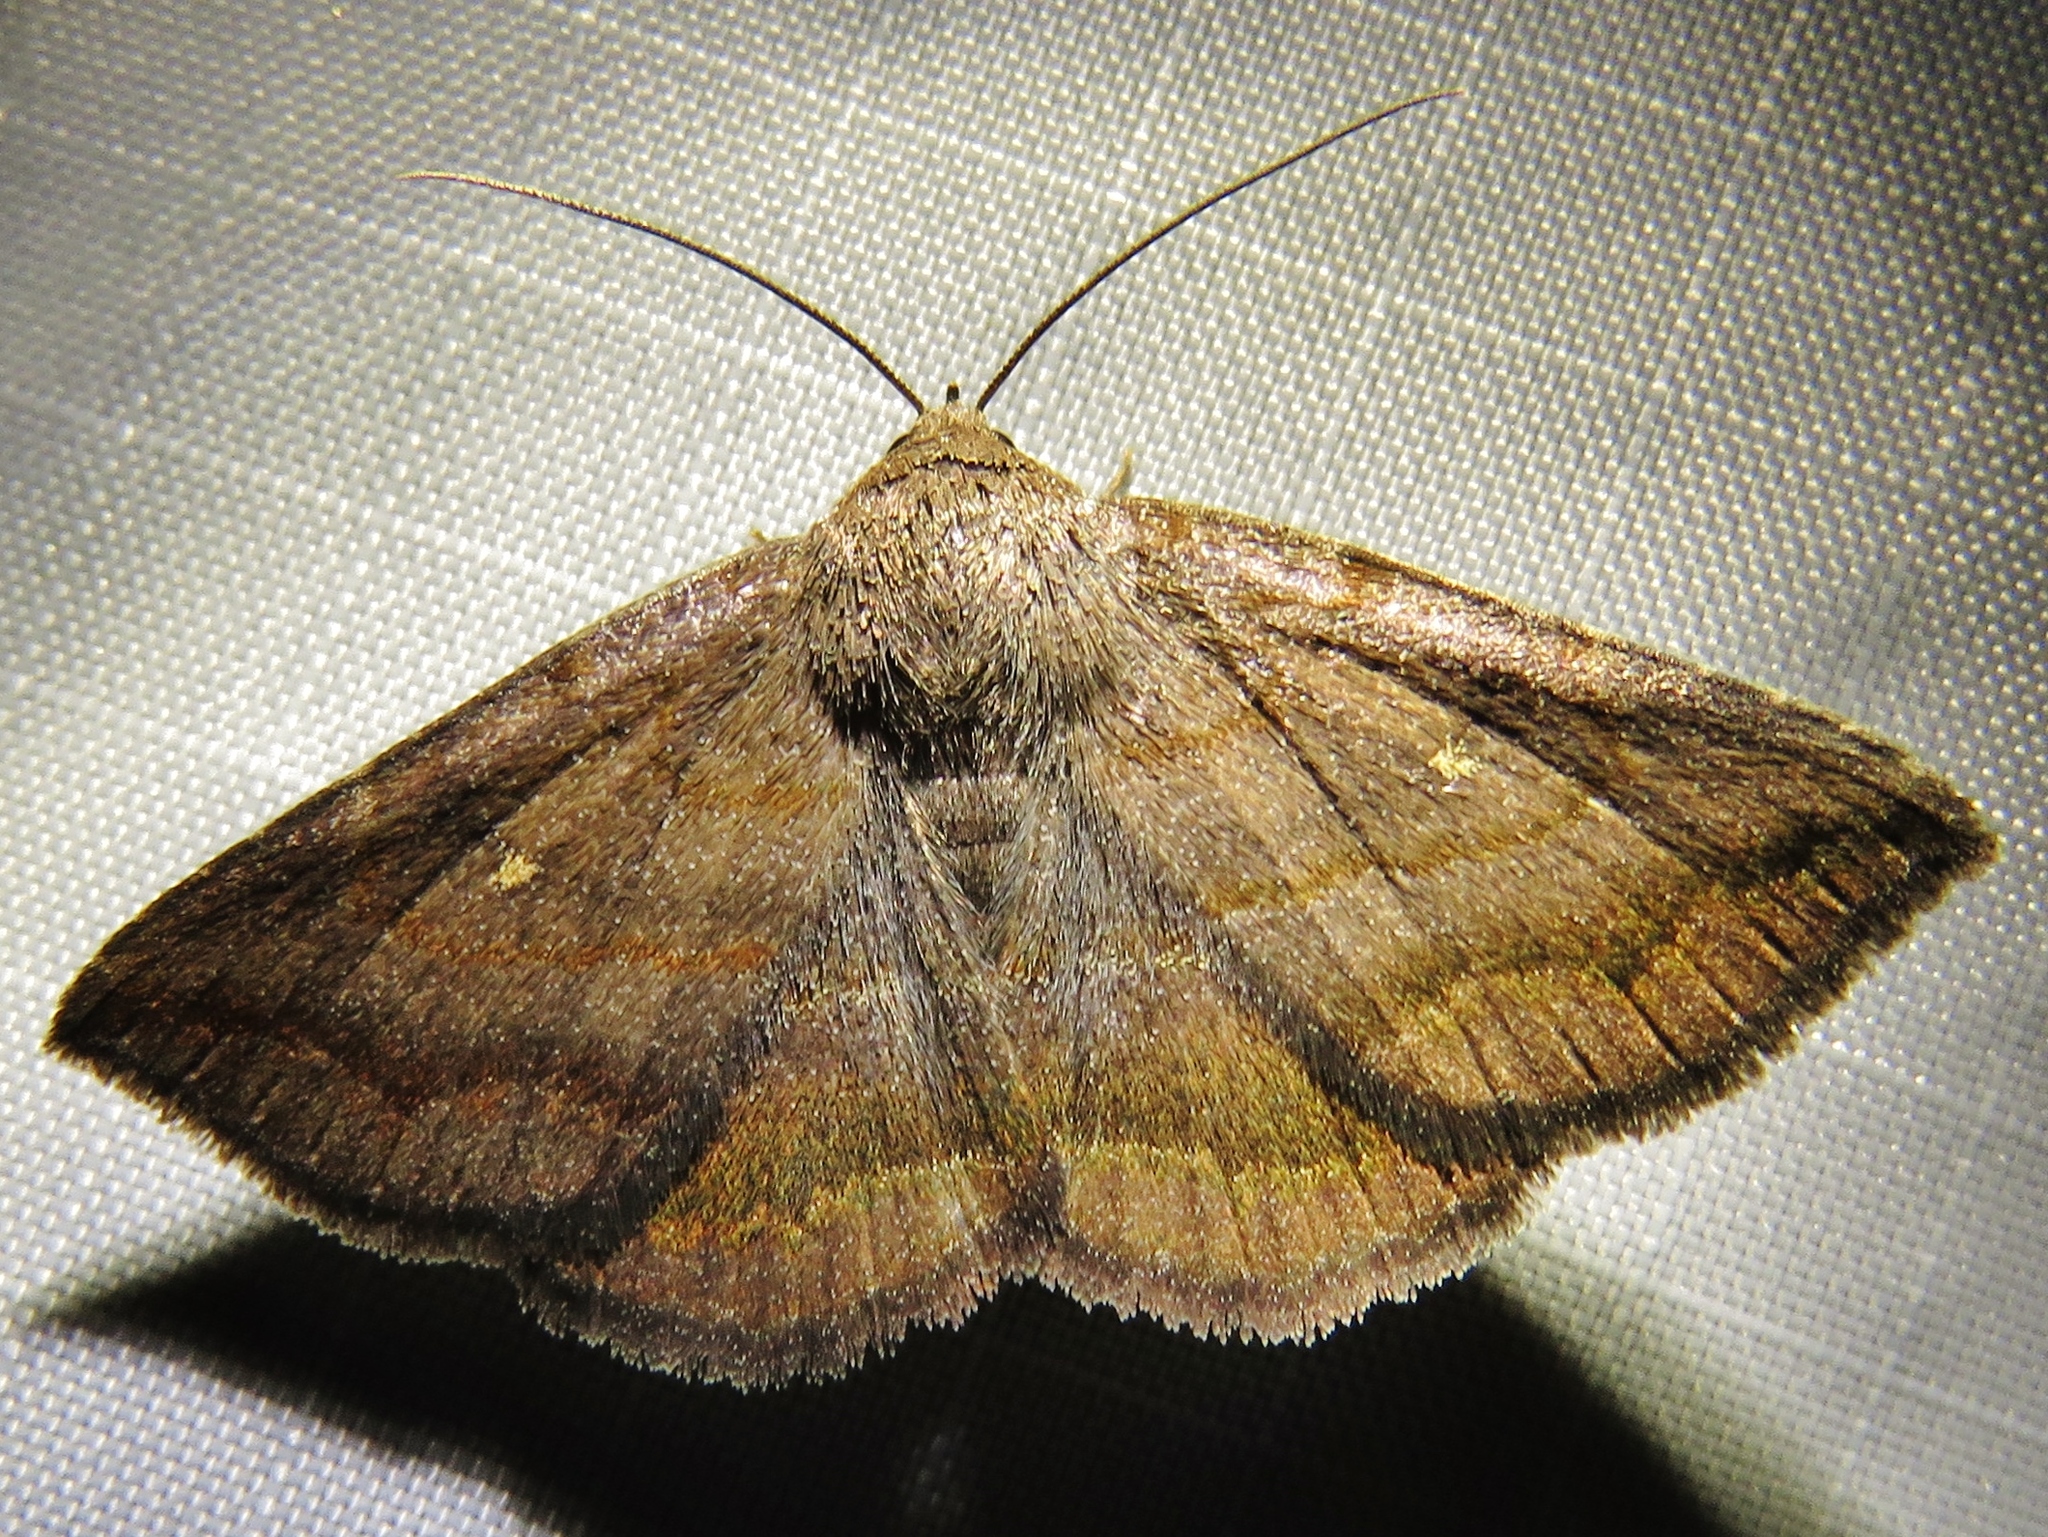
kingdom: Animalia
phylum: Arthropoda
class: Insecta
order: Lepidoptera
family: Erebidae
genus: Lesmone
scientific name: Lesmone detrahens
